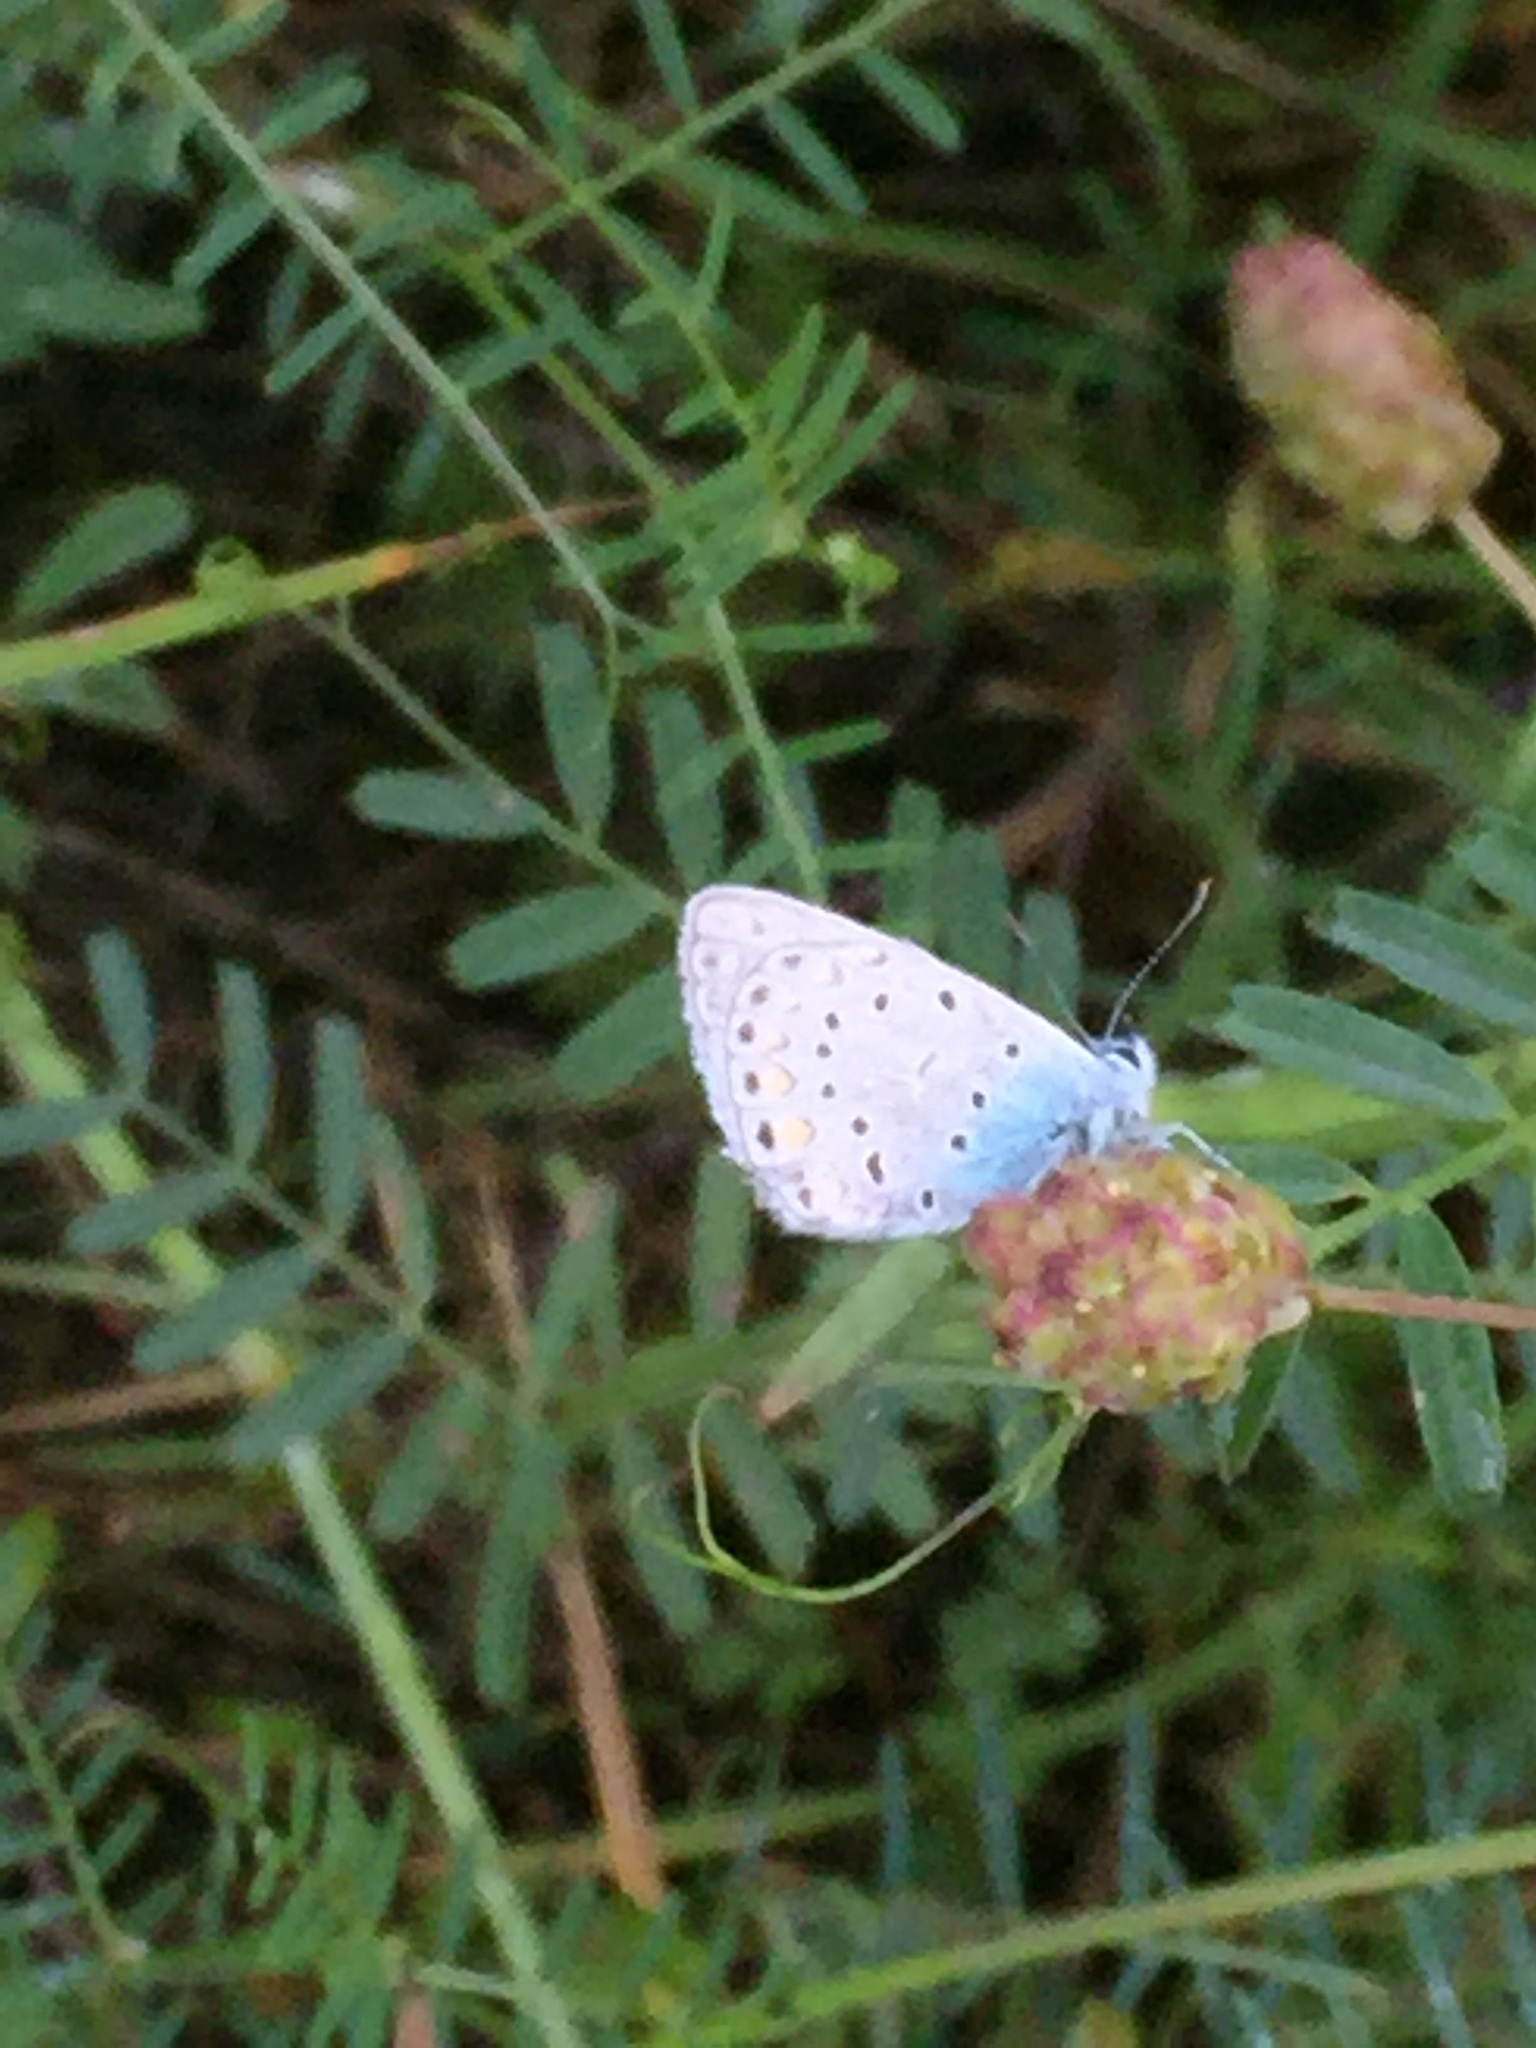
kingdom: Animalia
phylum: Arthropoda
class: Insecta
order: Lepidoptera
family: Lycaenidae
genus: Polyommatus
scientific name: Polyommatus icarus
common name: Common blue
